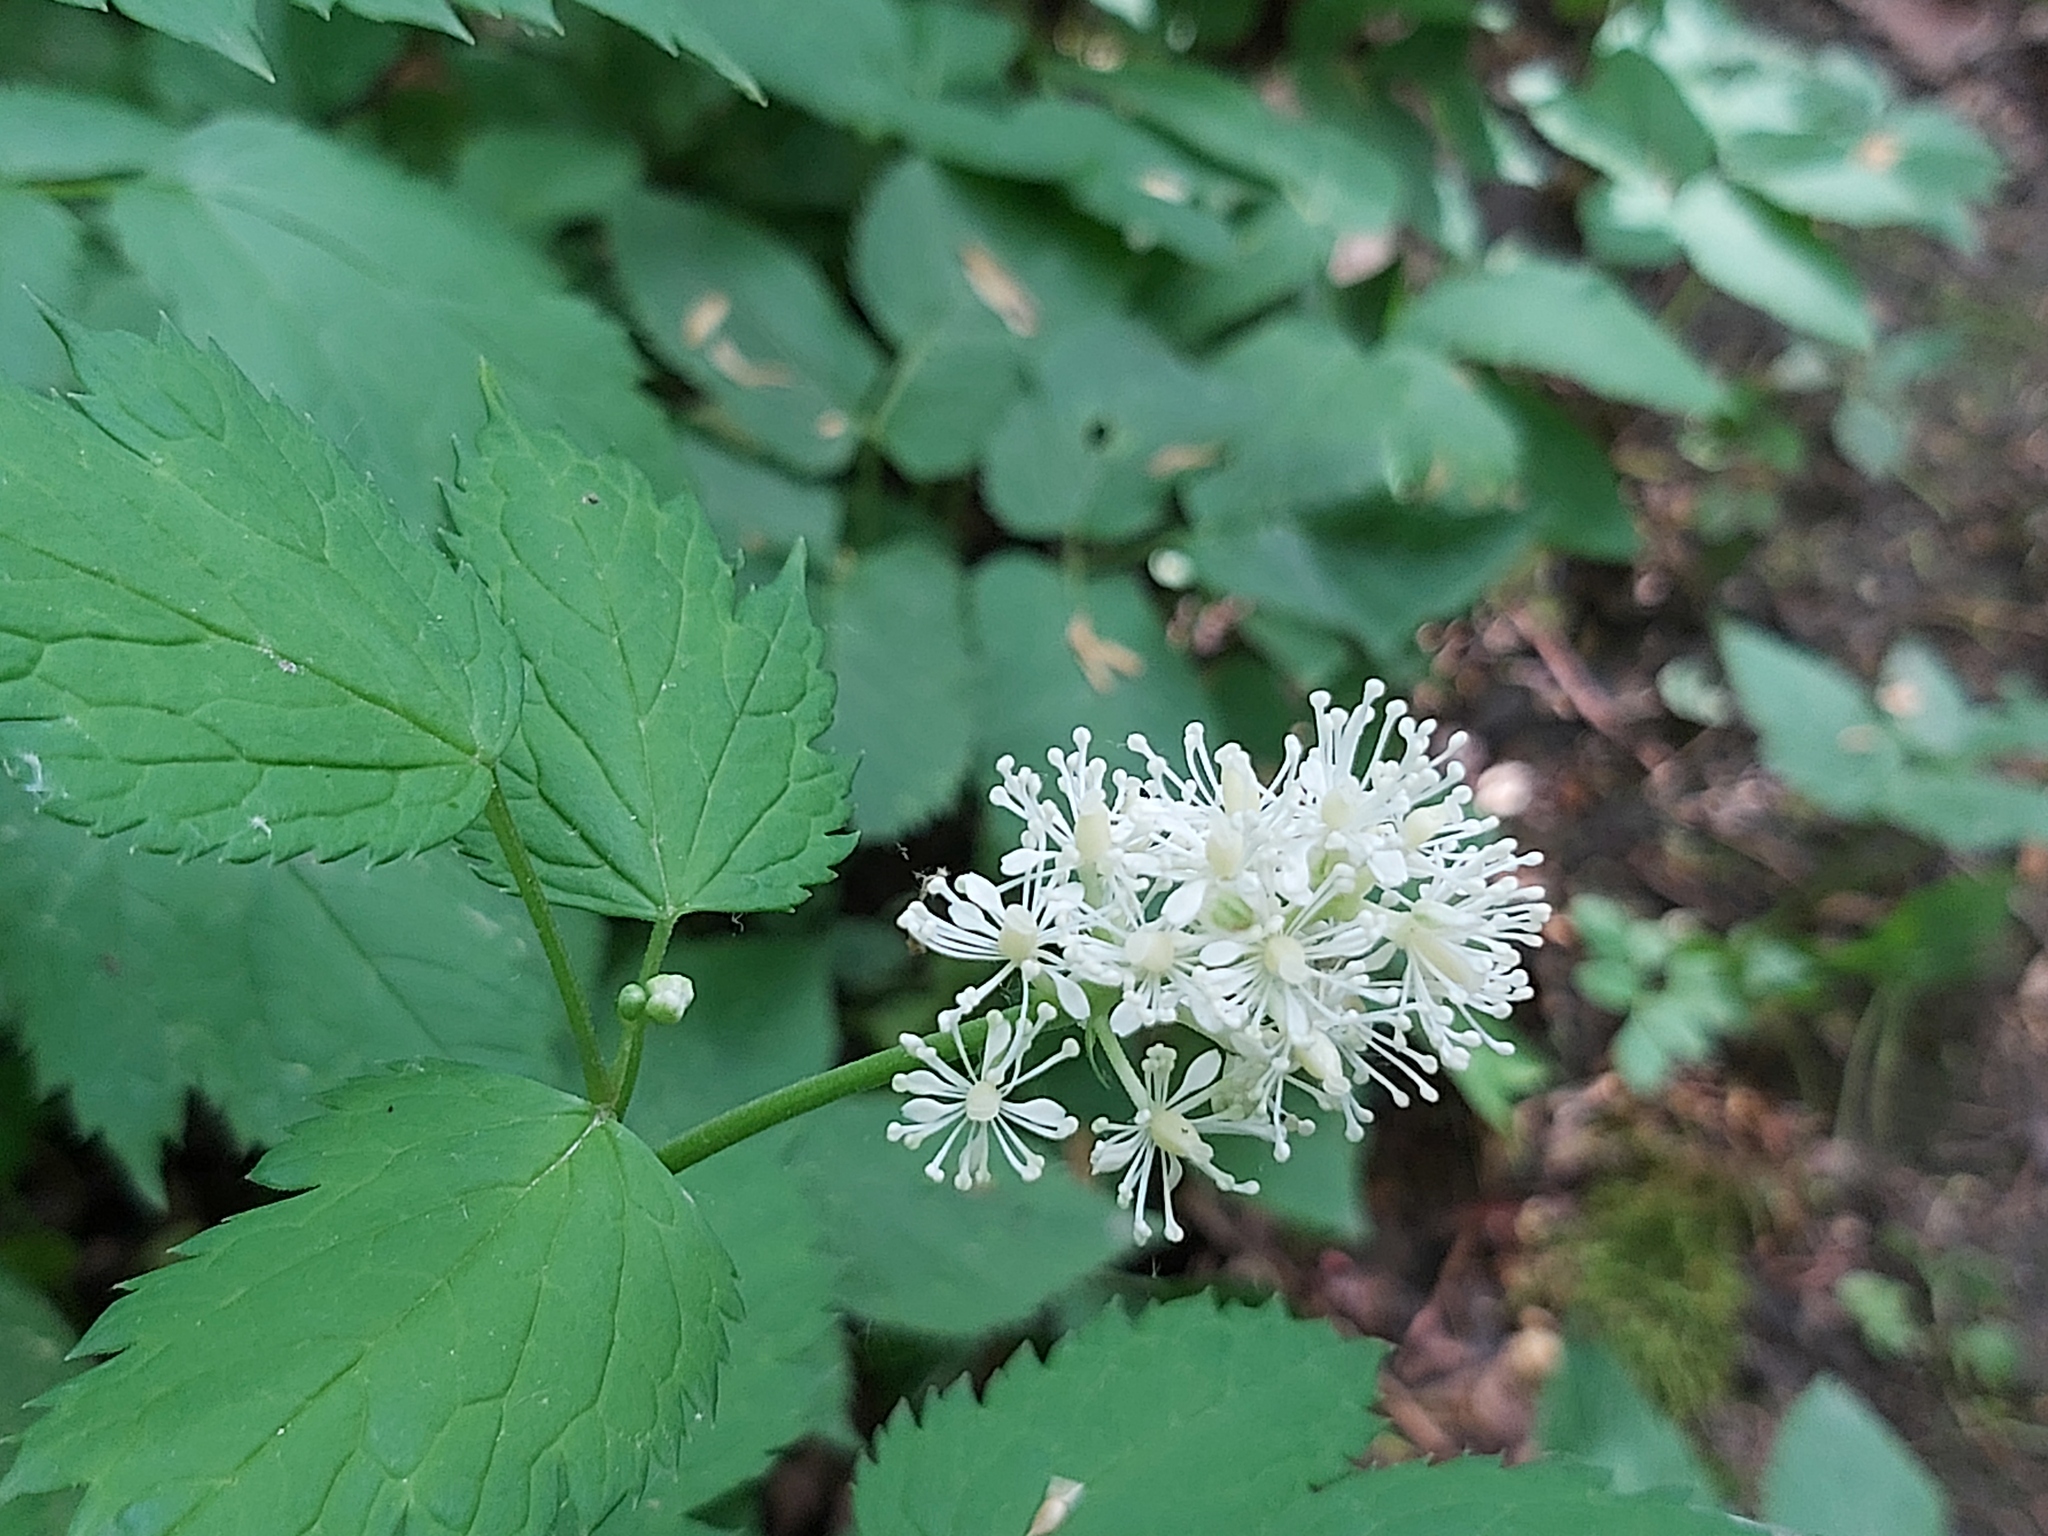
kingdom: Plantae
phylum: Tracheophyta
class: Magnoliopsida
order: Ranunculales
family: Ranunculaceae
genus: Actaea
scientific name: Actaea spicata
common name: Baneberry
